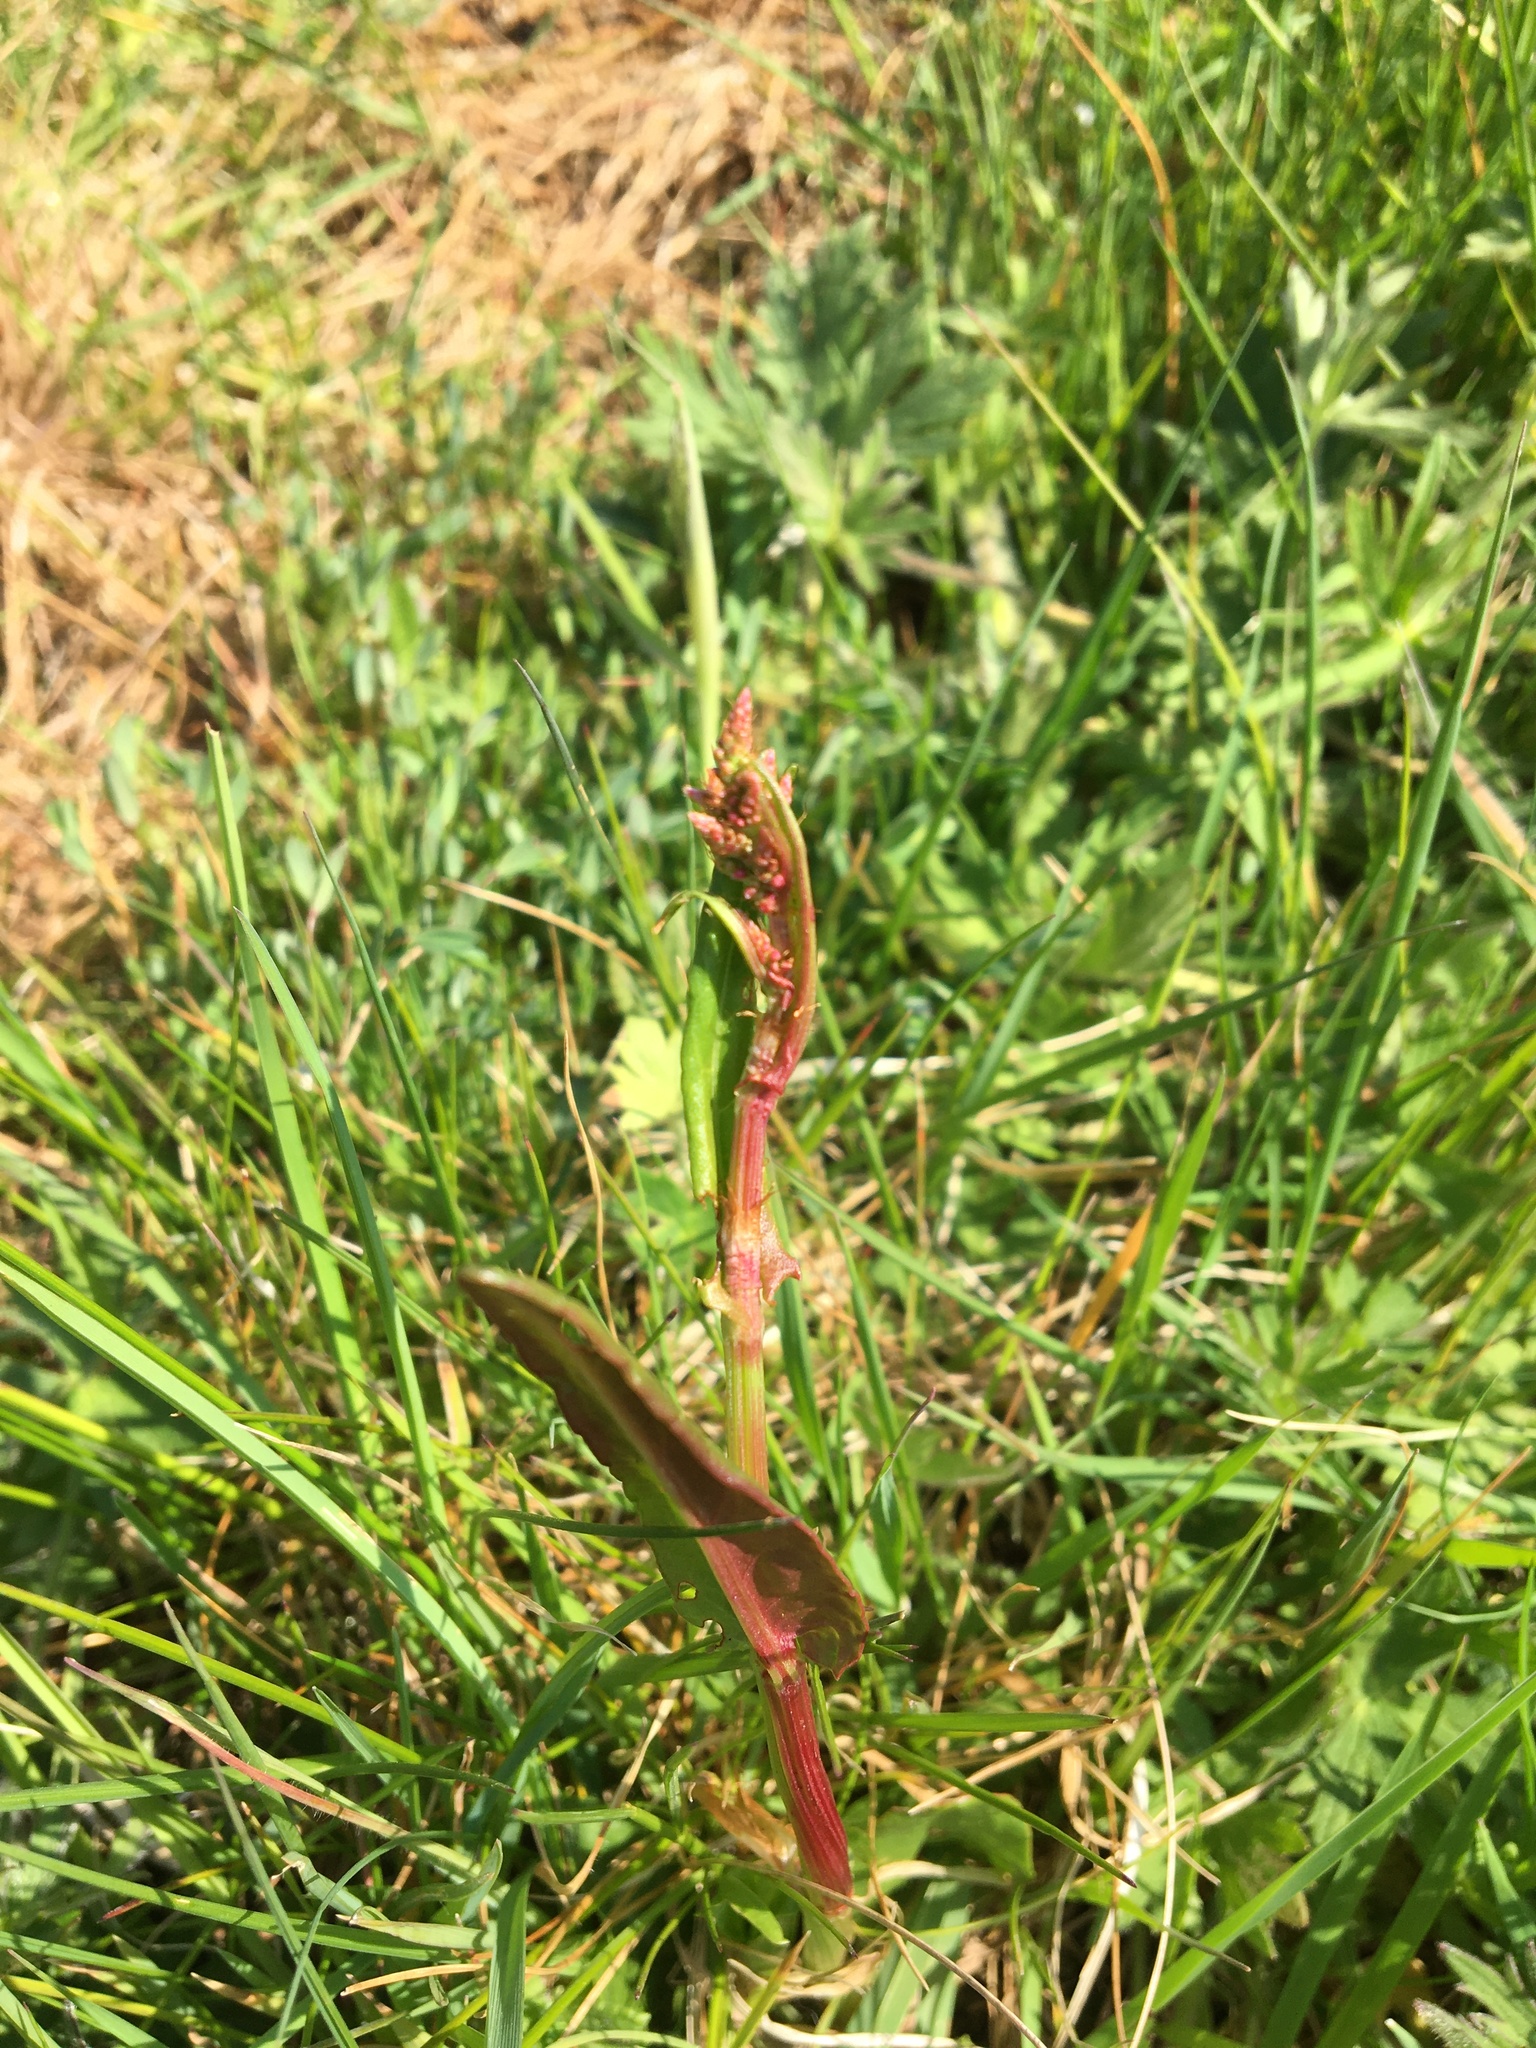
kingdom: Plantae
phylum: Tracheophyta
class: Magnoliopsida
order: Caryophyllales
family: Polygonaceae
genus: Rumex
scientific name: Rumex acetosa
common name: Garden sorrel
